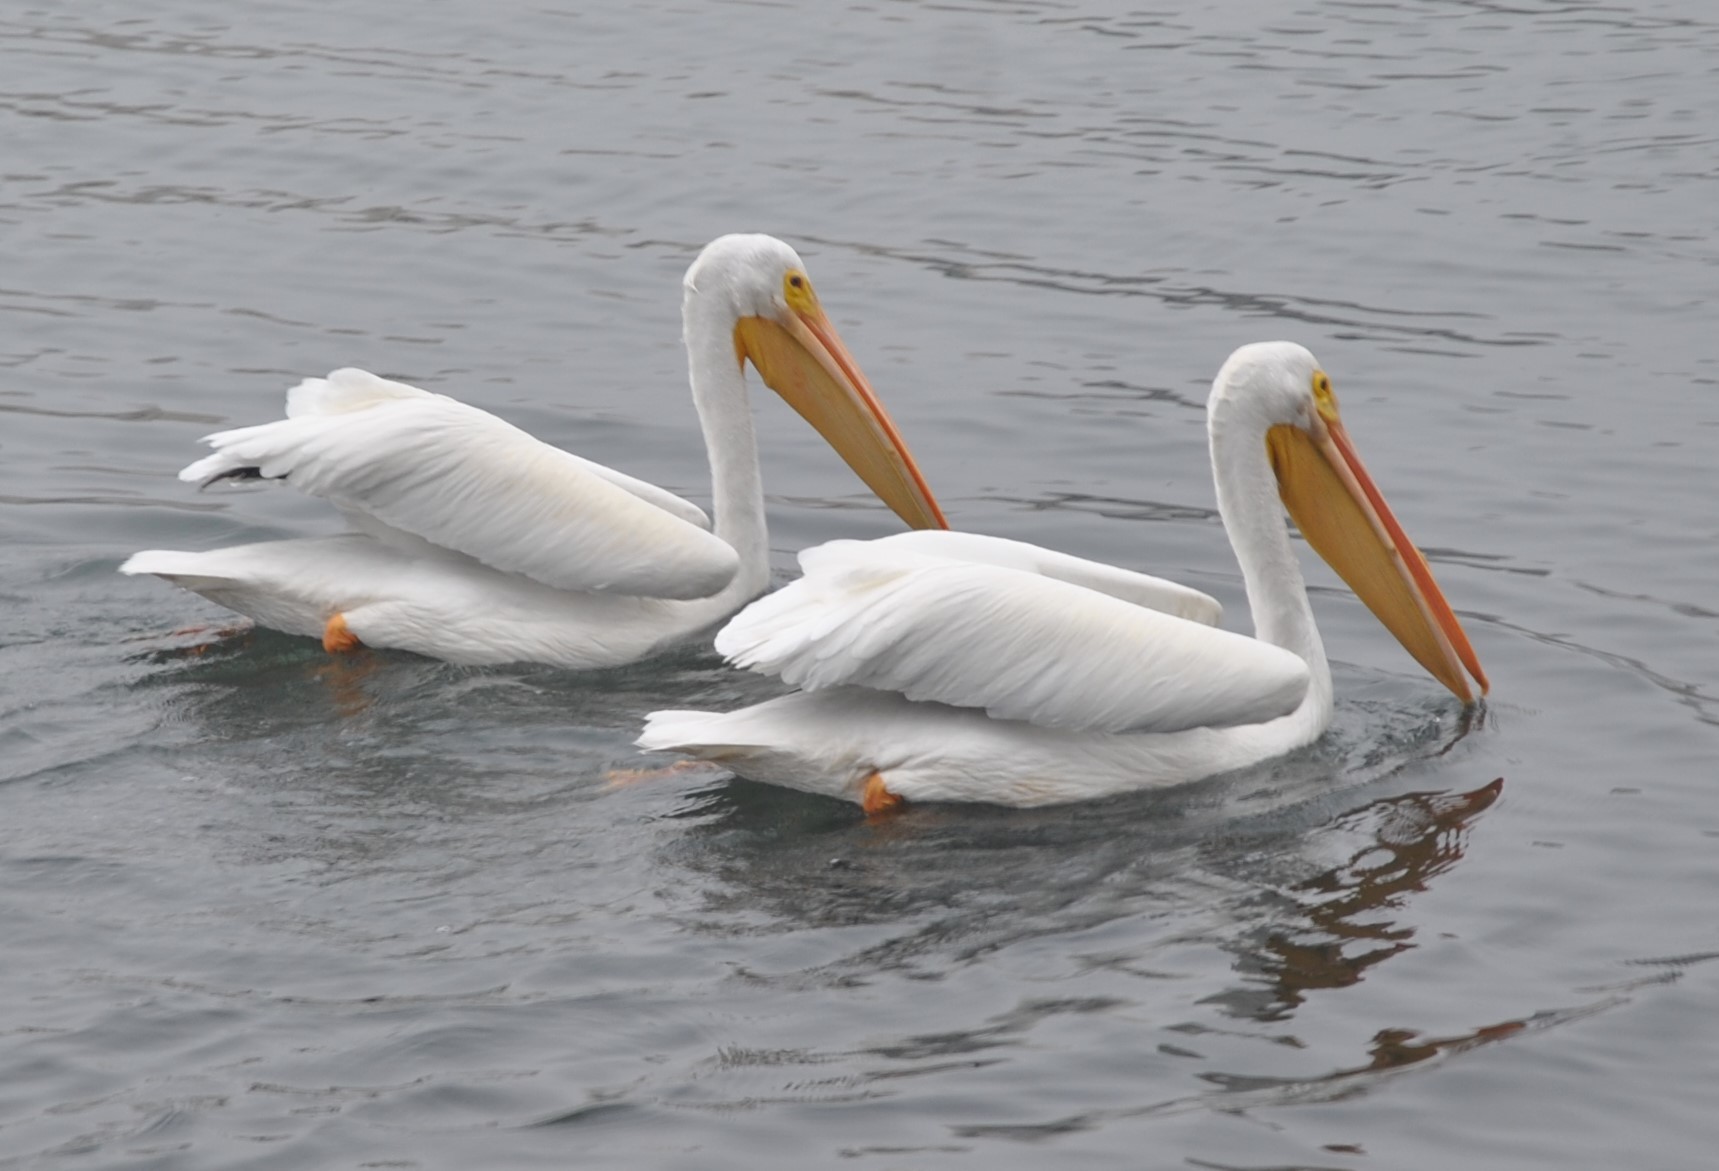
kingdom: Animalia
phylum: Chordata
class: Aves
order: Pelecaniformes
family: Pelecanidae
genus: Pelecanus
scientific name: Pelecanus erythrorhynchos
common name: American white pelican
